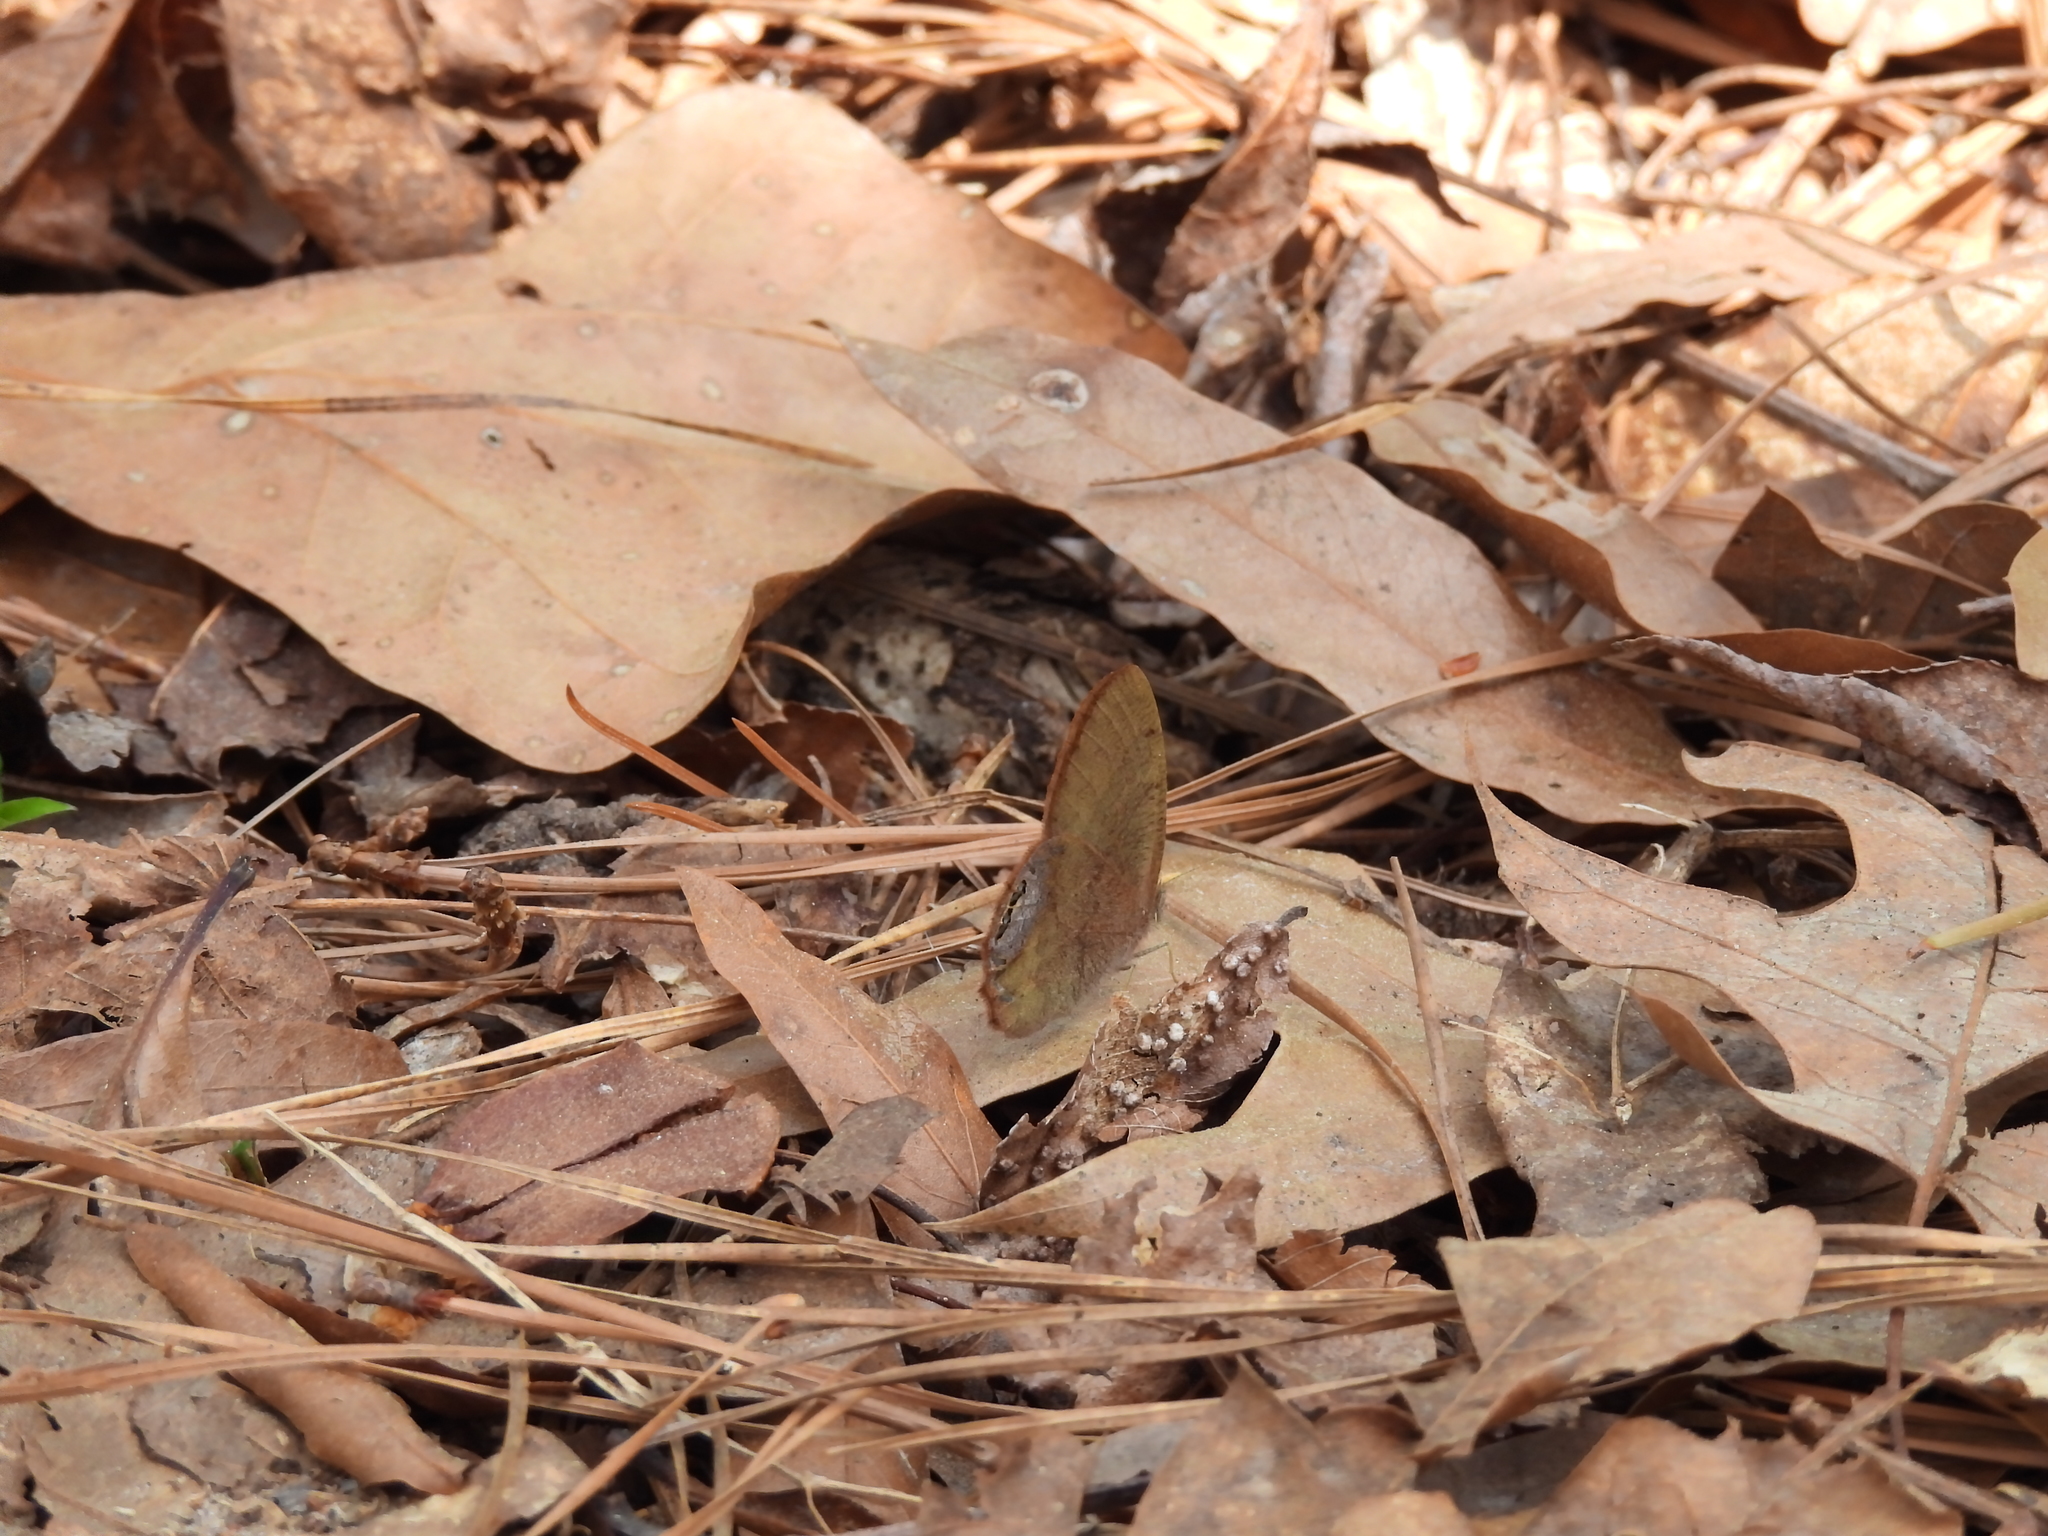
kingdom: Animalia
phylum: Arthropoda
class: Insecta
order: Lepidoptera
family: Nymphalidae
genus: Euptychia
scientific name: Euptychia cornelius
